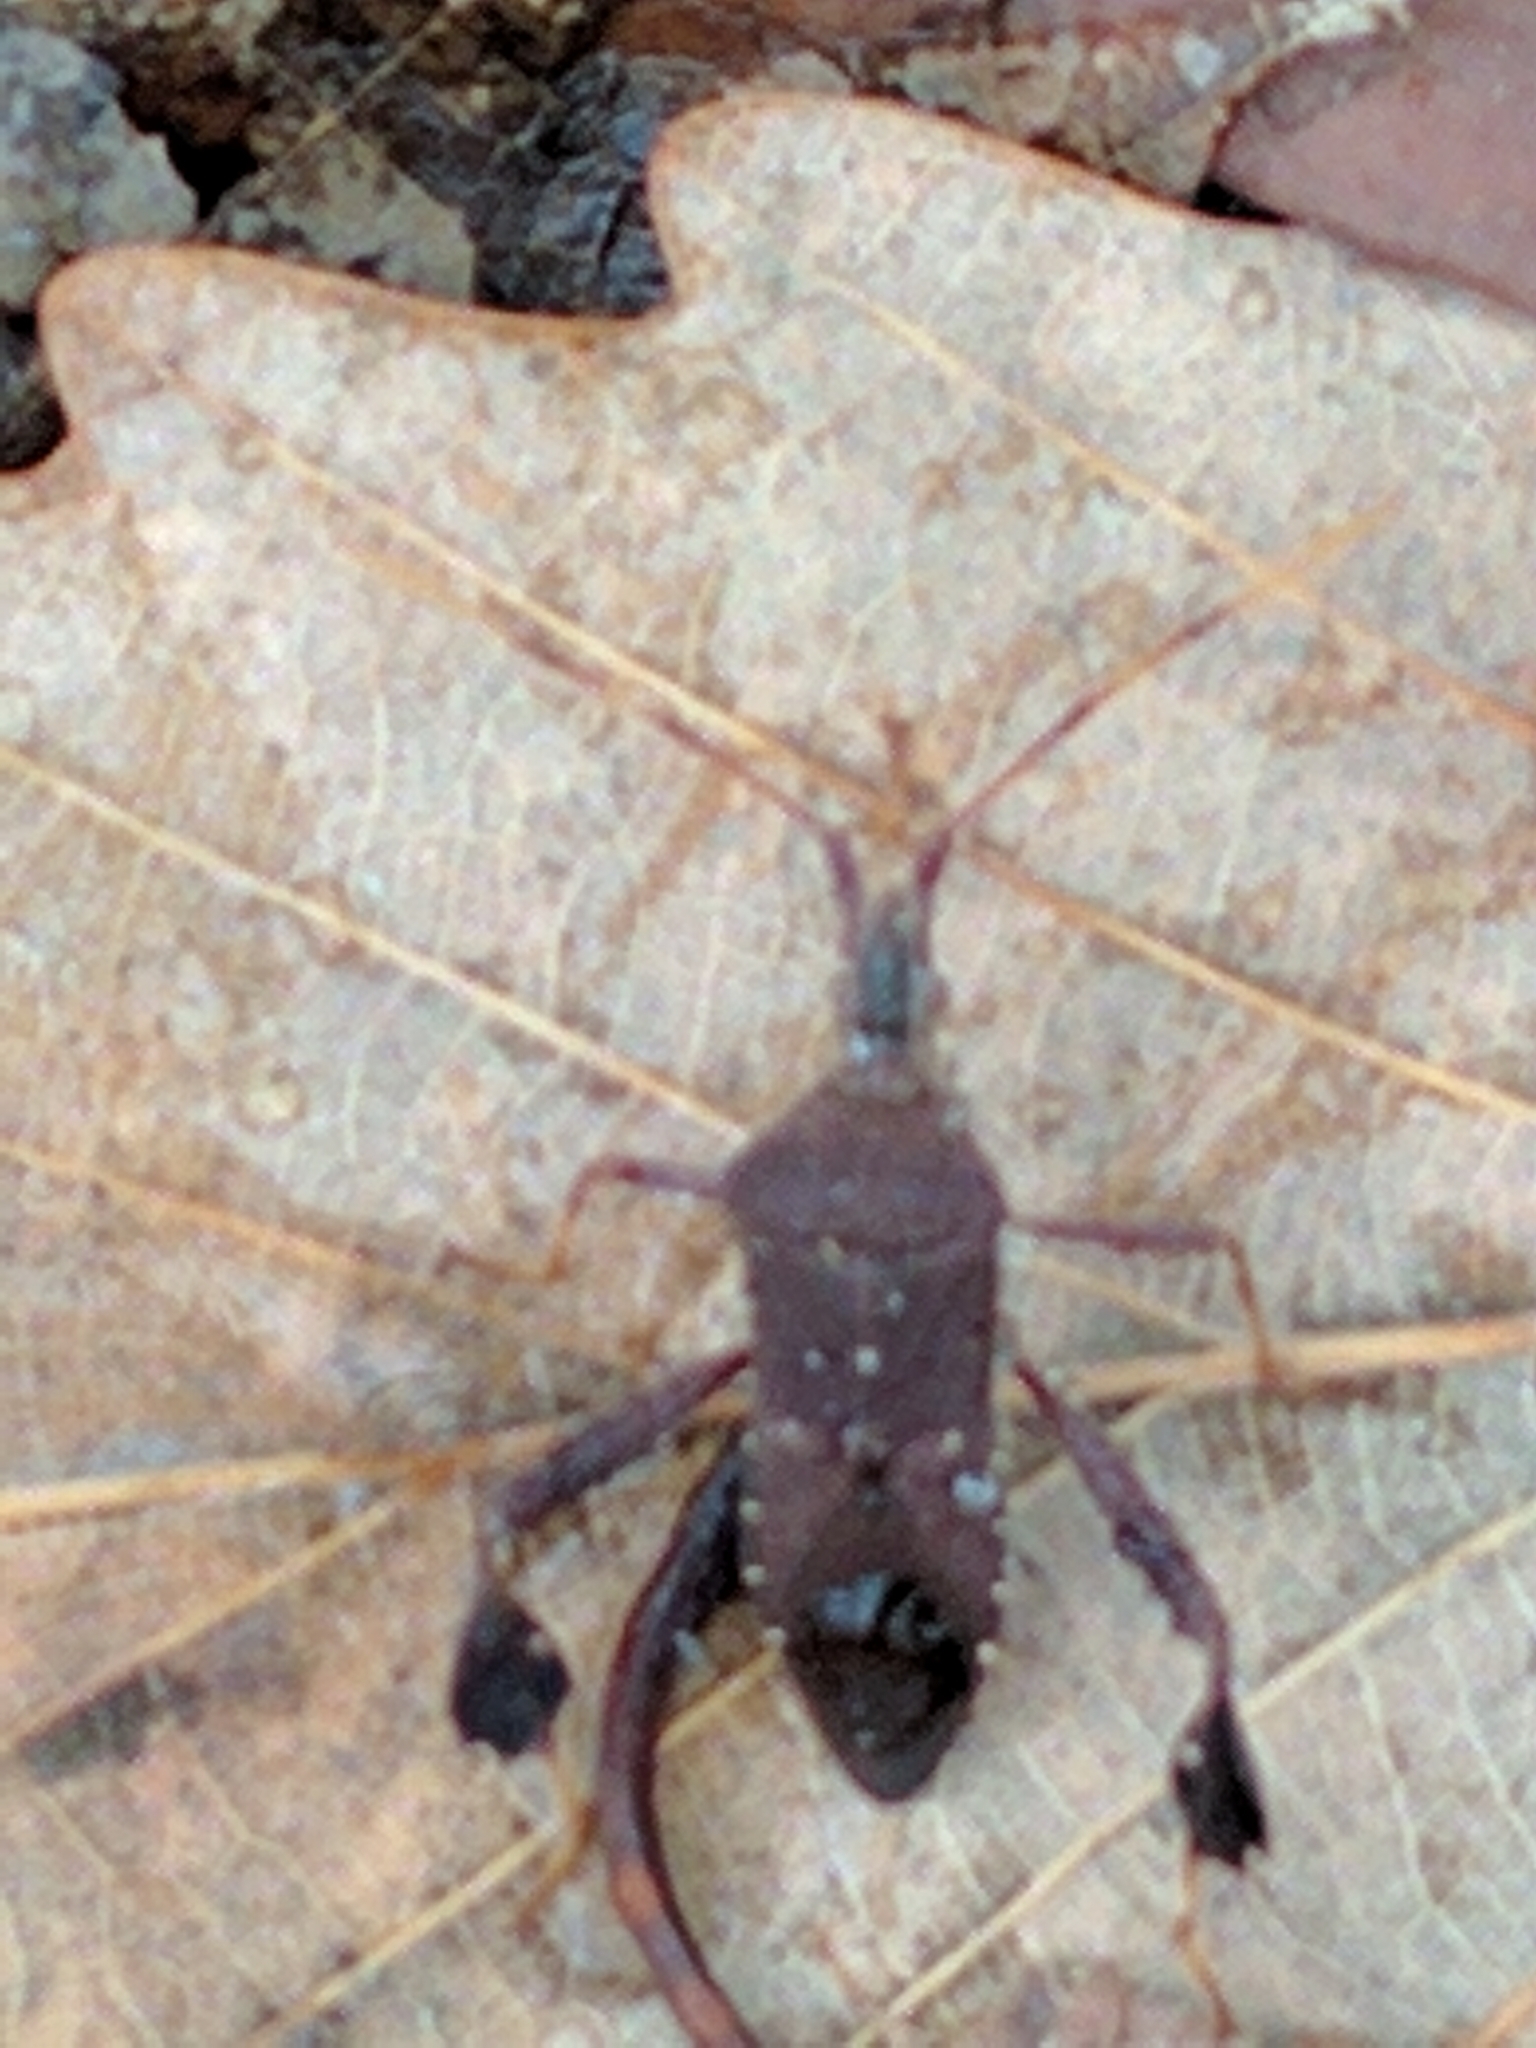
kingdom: Animalia
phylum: Arthropoda
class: Insecta
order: Hemiptera
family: Coreidae
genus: Leptoglossus
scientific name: Leptoglossus oppositus
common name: Northern leaf-footed bug
